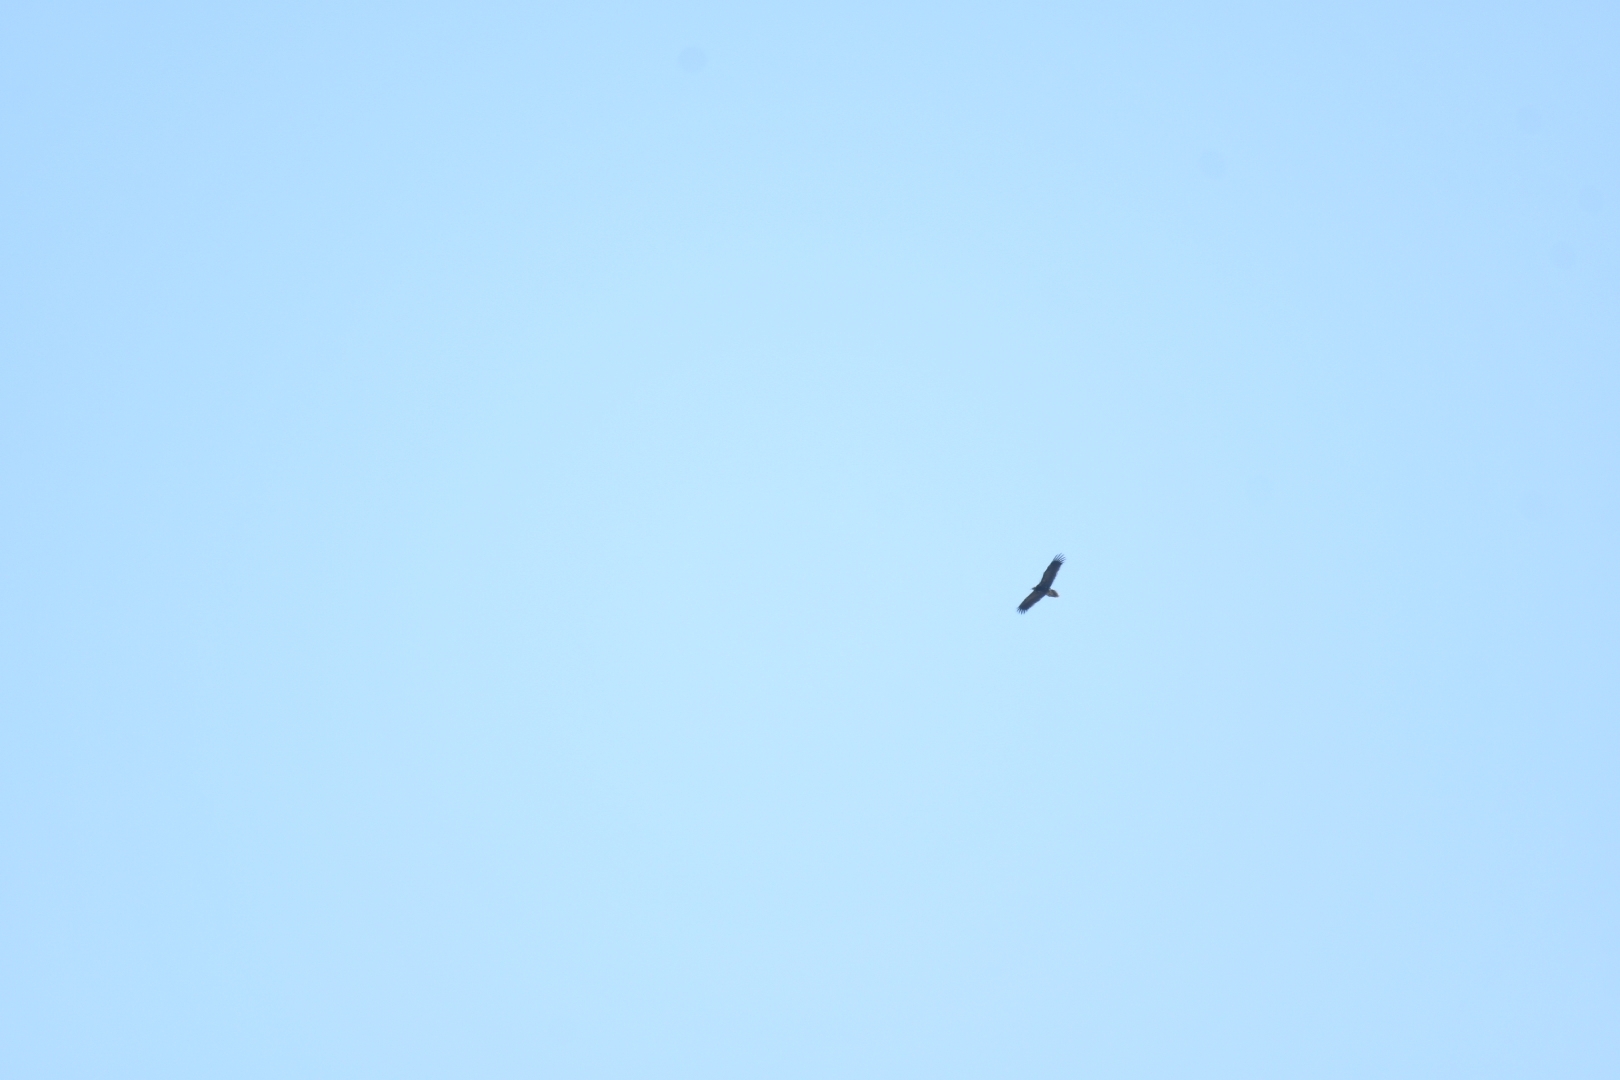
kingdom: Animalia
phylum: Chordata
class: Aves
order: Accipitriformes
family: Accipitridae
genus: Neophron
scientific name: Neophron percnopterus
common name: Egyptian vulture
